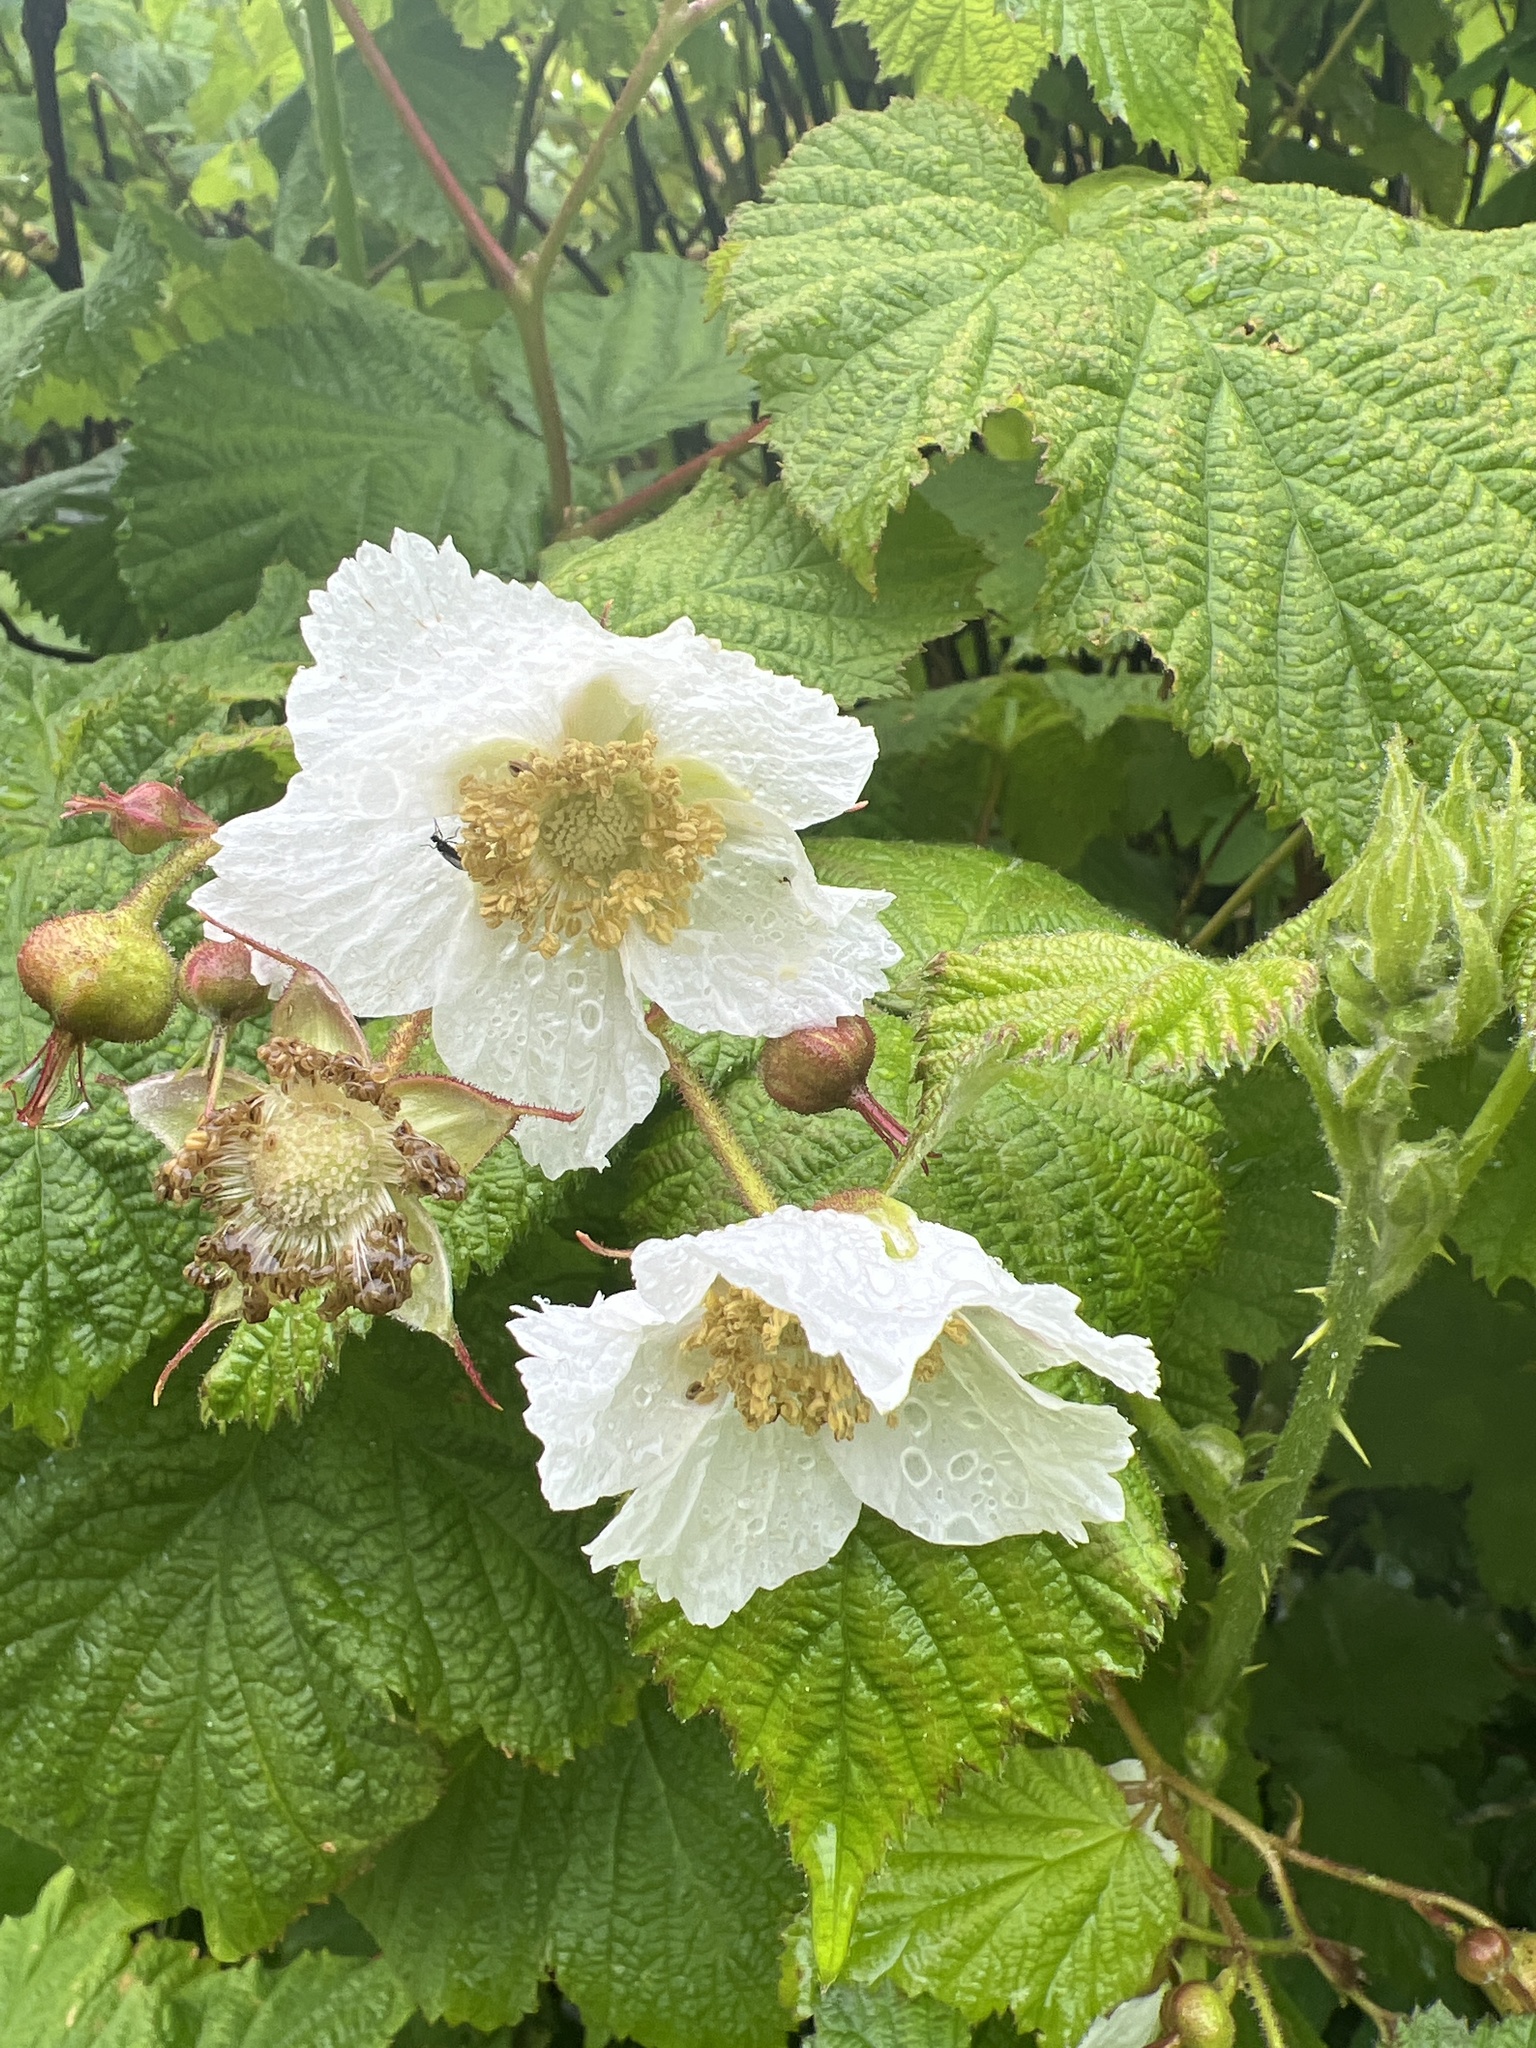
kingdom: Plantae
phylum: Tracheophyta
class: Magnoliopsida
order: Rosales
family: Rosaceae
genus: Rubus
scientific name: Rubus parviflorus
